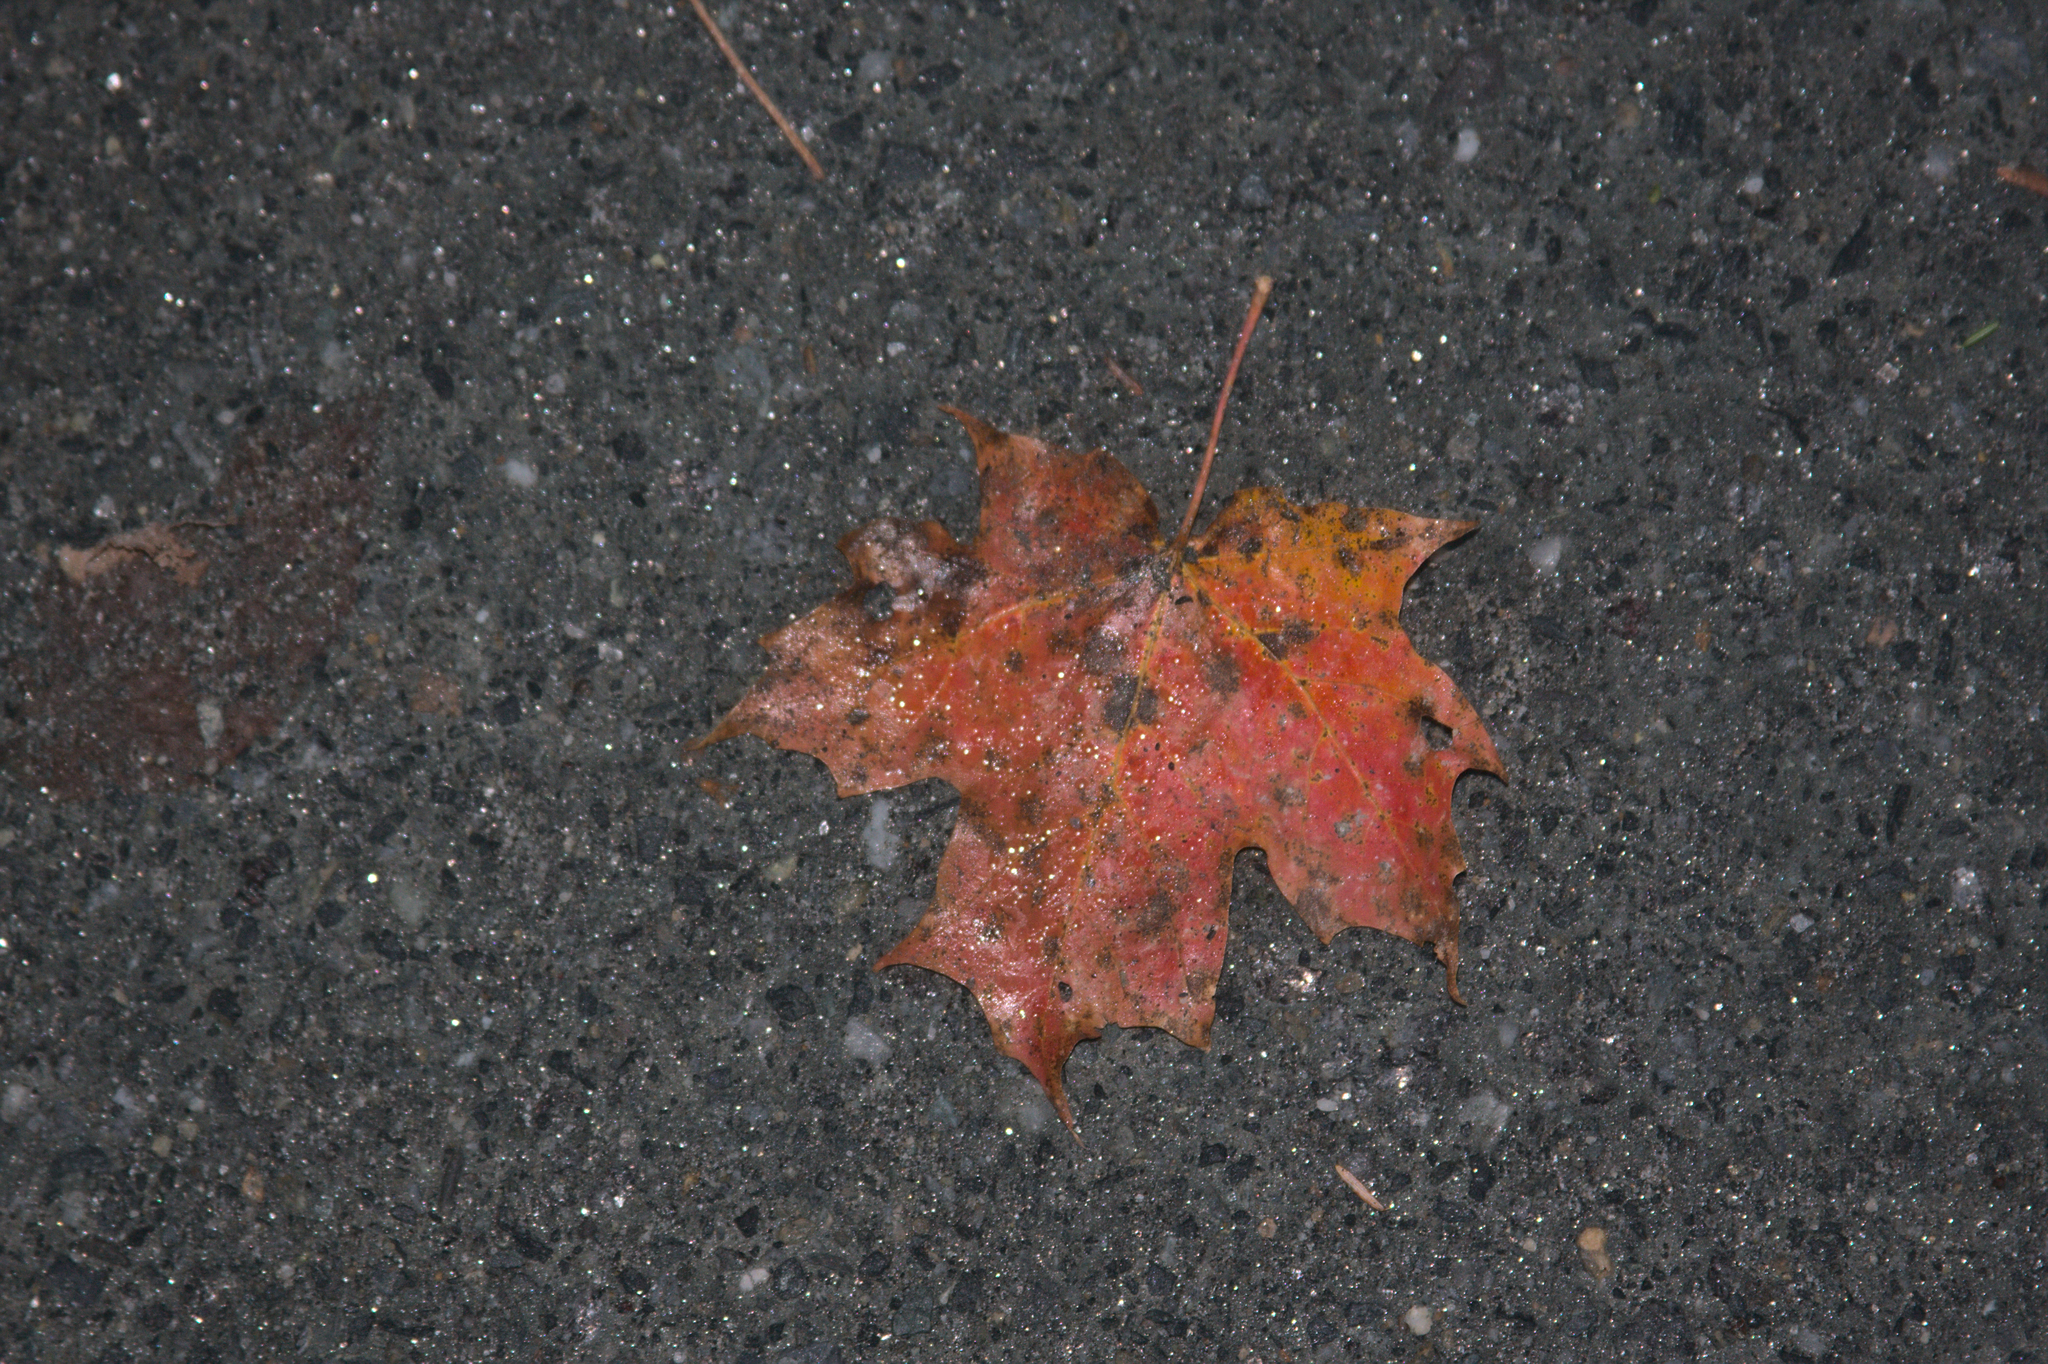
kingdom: Plantae
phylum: Tracheophyta
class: Magnoliopsida
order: Sapindales
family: Sapindaceae
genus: Acer
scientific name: Acer saccharum
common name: Sugar maple
